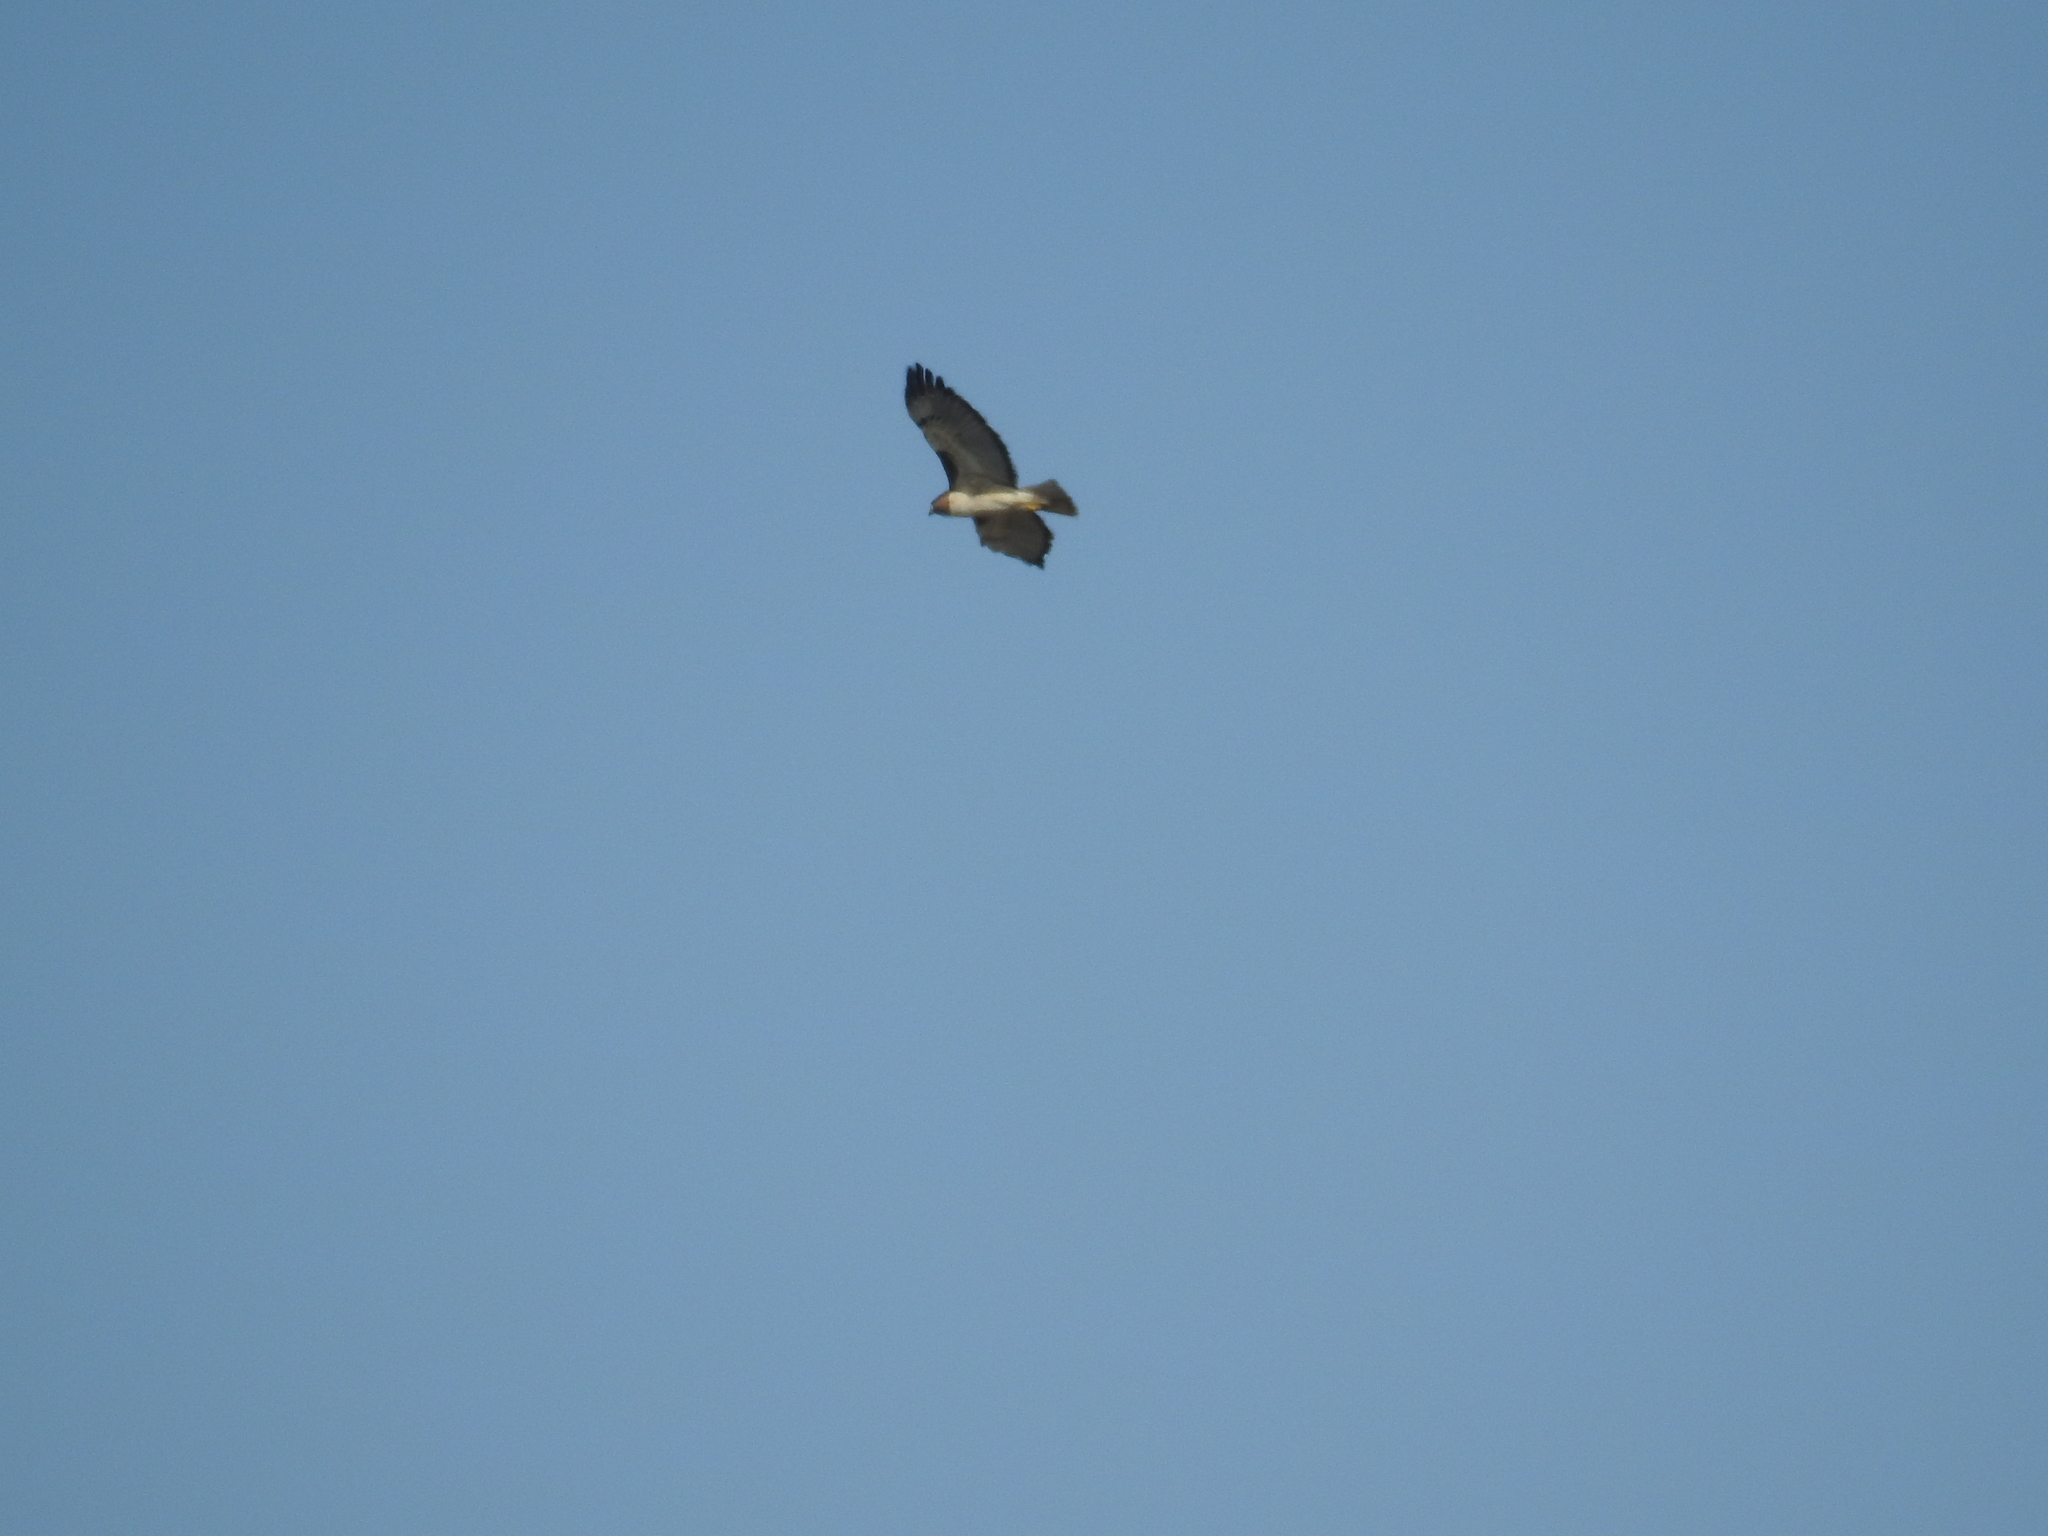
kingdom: Animalia
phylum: Chordata
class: Aves
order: Accipitriformes
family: Accipitridae
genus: Buteo
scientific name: Buteo jamaicensis
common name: Red-tailed hawk
